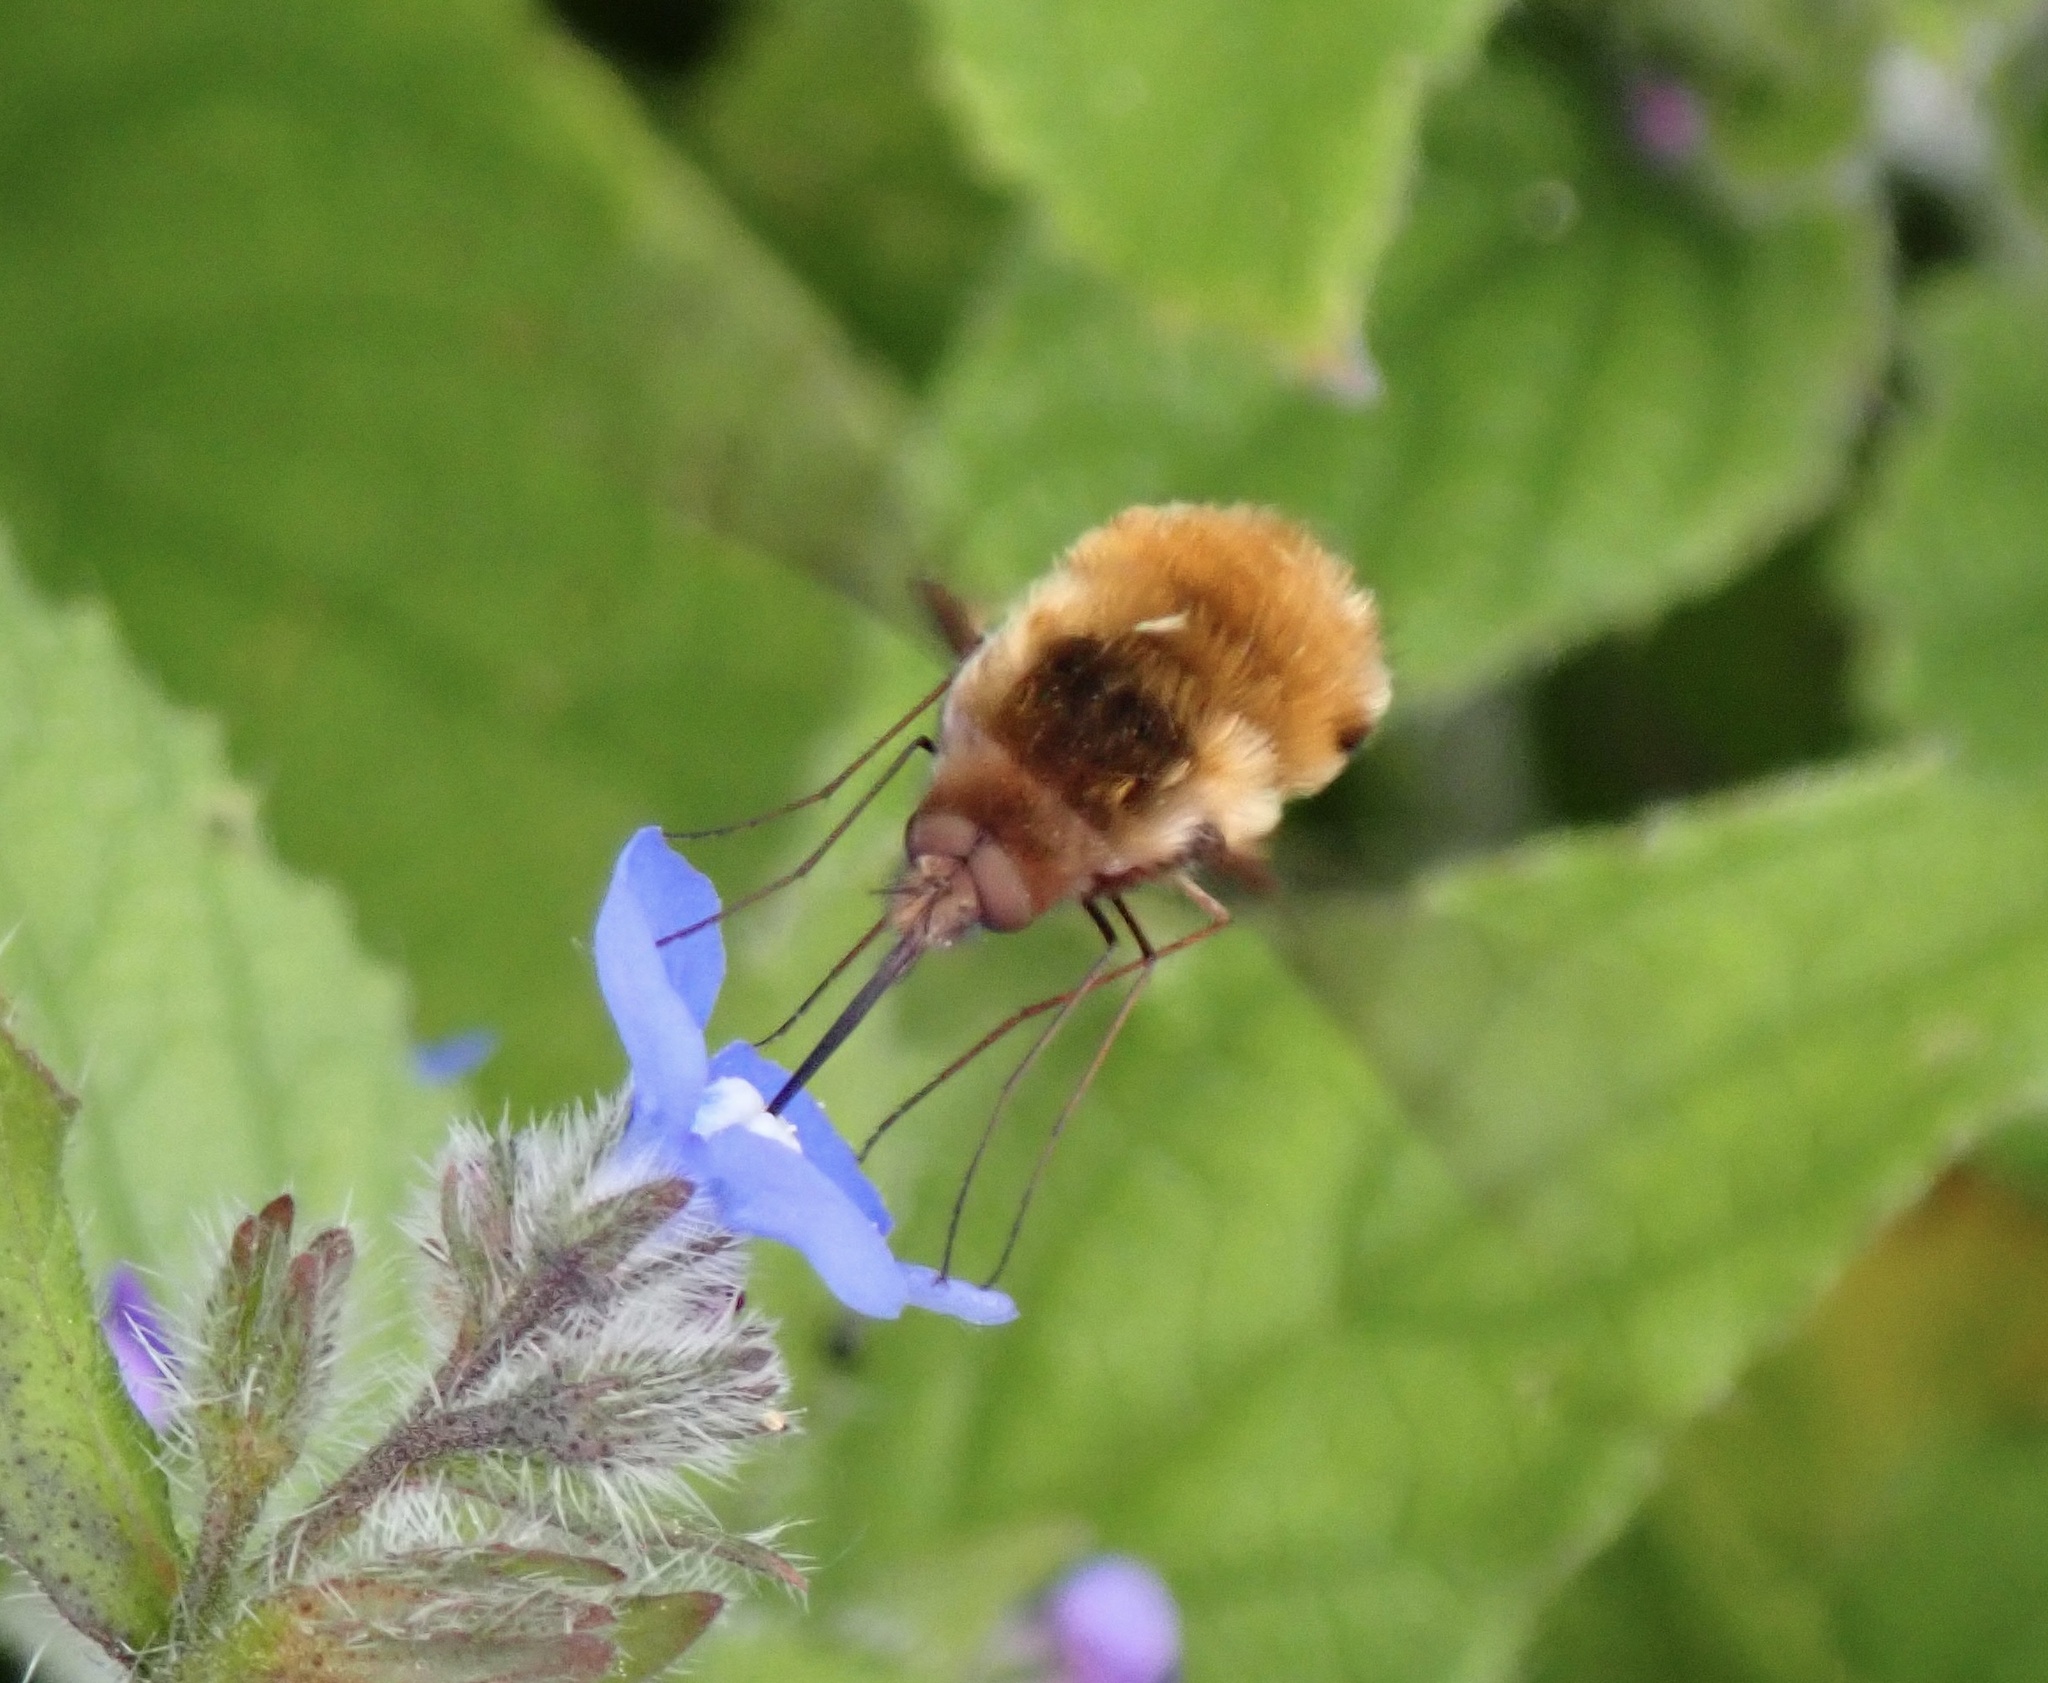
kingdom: Animalia
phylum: Arthropoda
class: Insecta
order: Diptera
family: Bombyliidae
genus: Bombylius
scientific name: Bombylius major
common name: Bee fly
